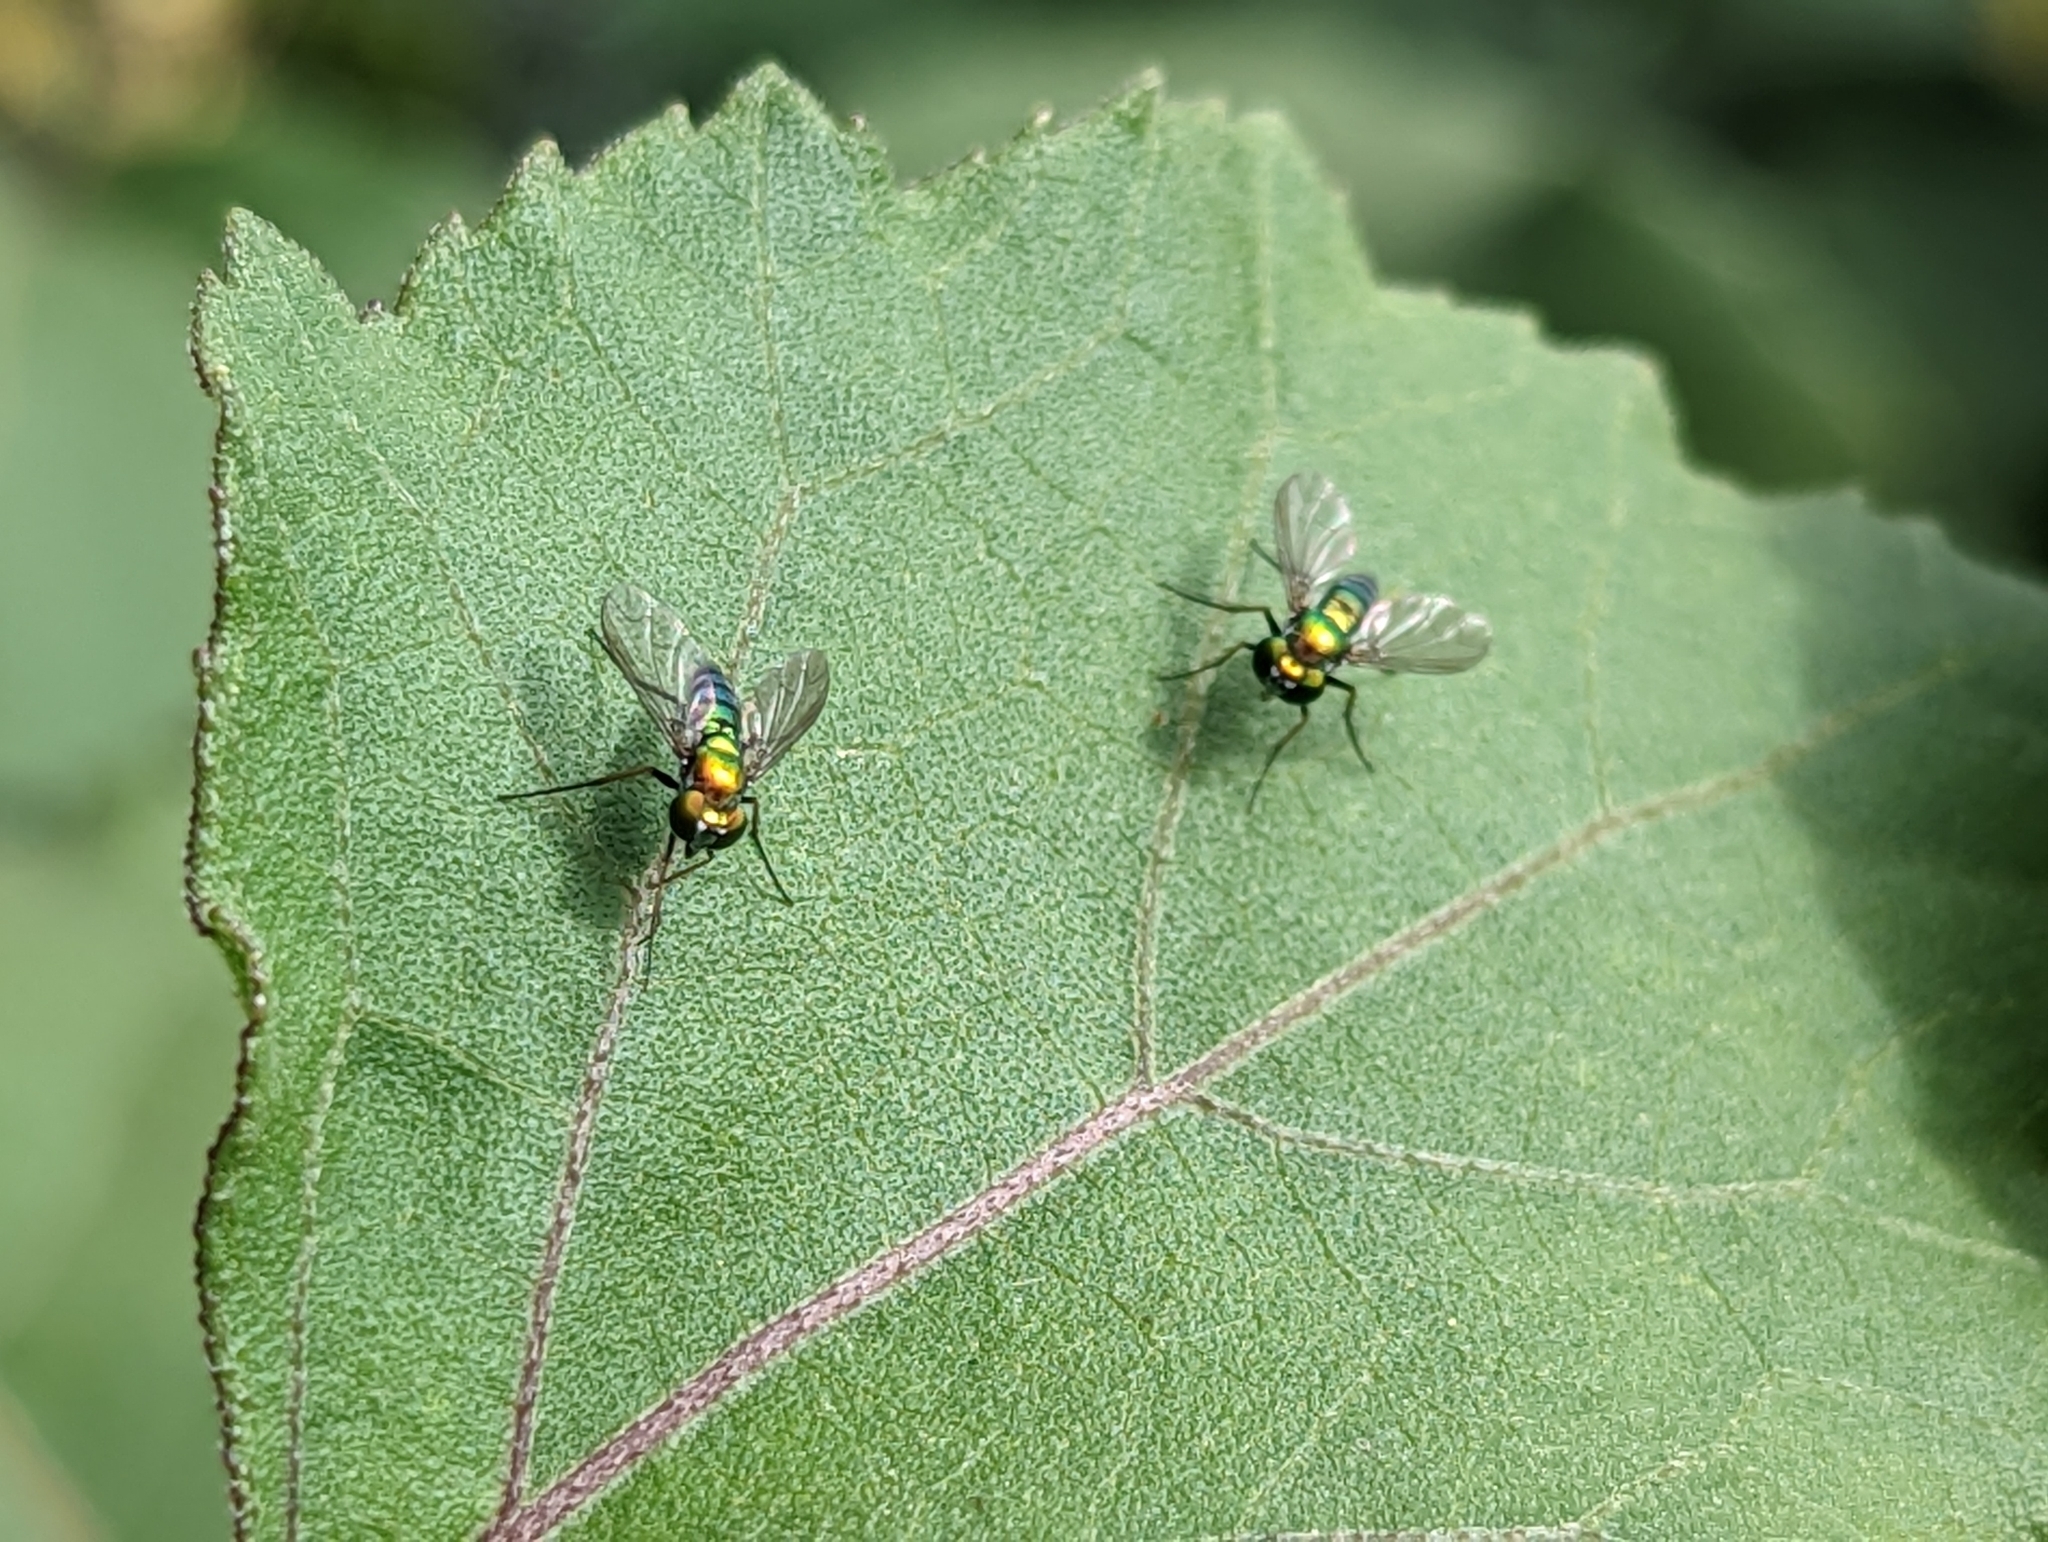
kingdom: Animalia
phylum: Arthropoda
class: Insecta
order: Diptera
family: Dolichopodidae
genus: Condylostylus
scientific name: Condylostylus longicornis
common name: Long-legged fly
